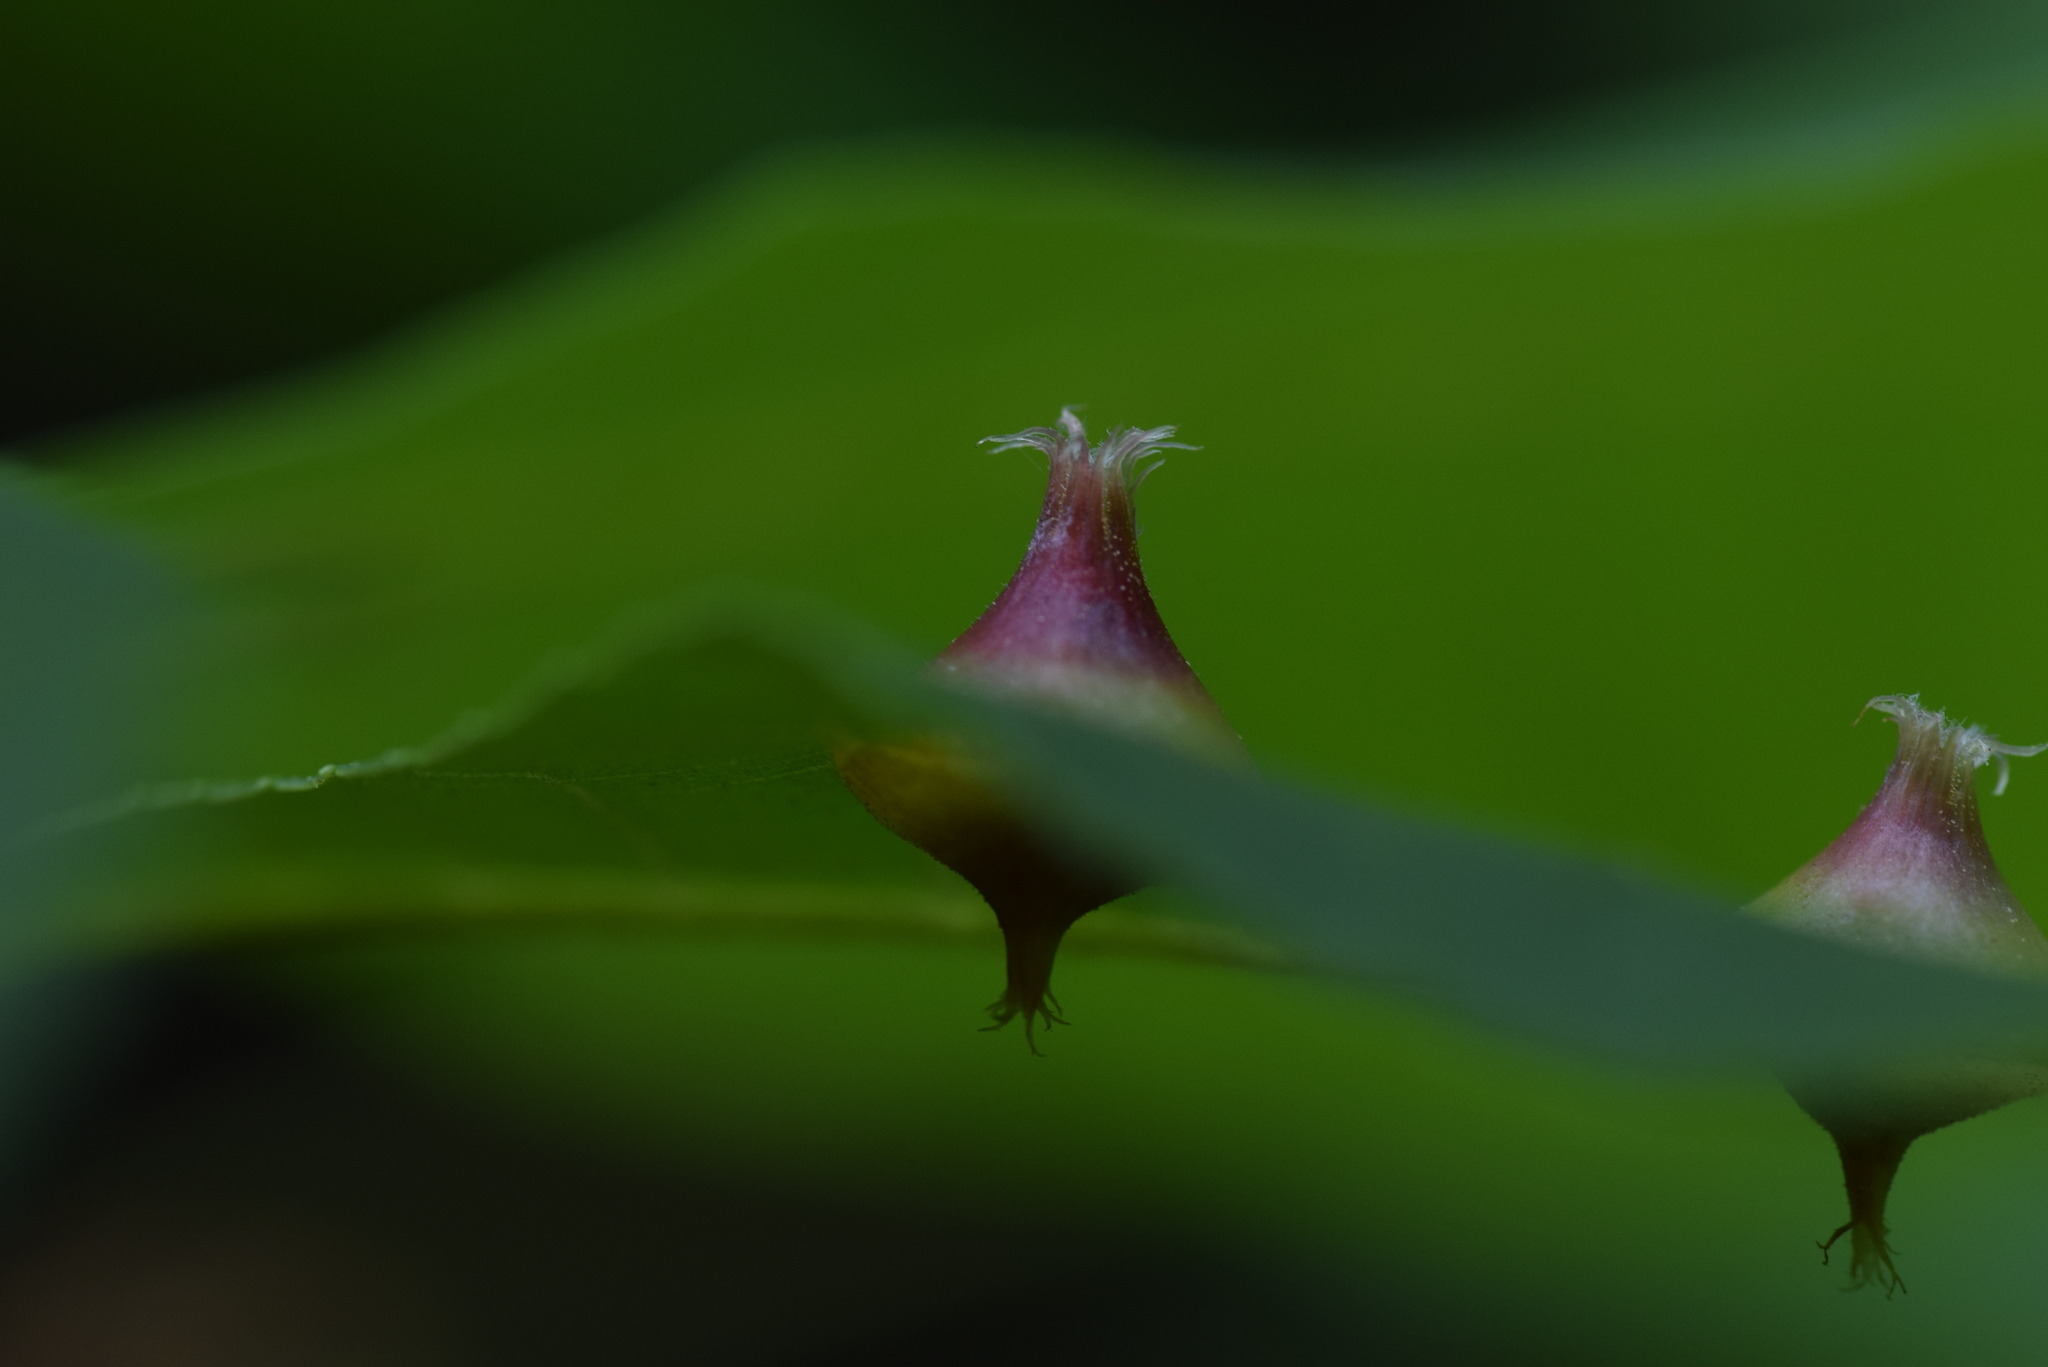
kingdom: Animalia
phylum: Arthropoda
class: Insecta
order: Hemiptera
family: Phylloxeridae
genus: Phylloxera
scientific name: Phylloxera caryaefoliae
